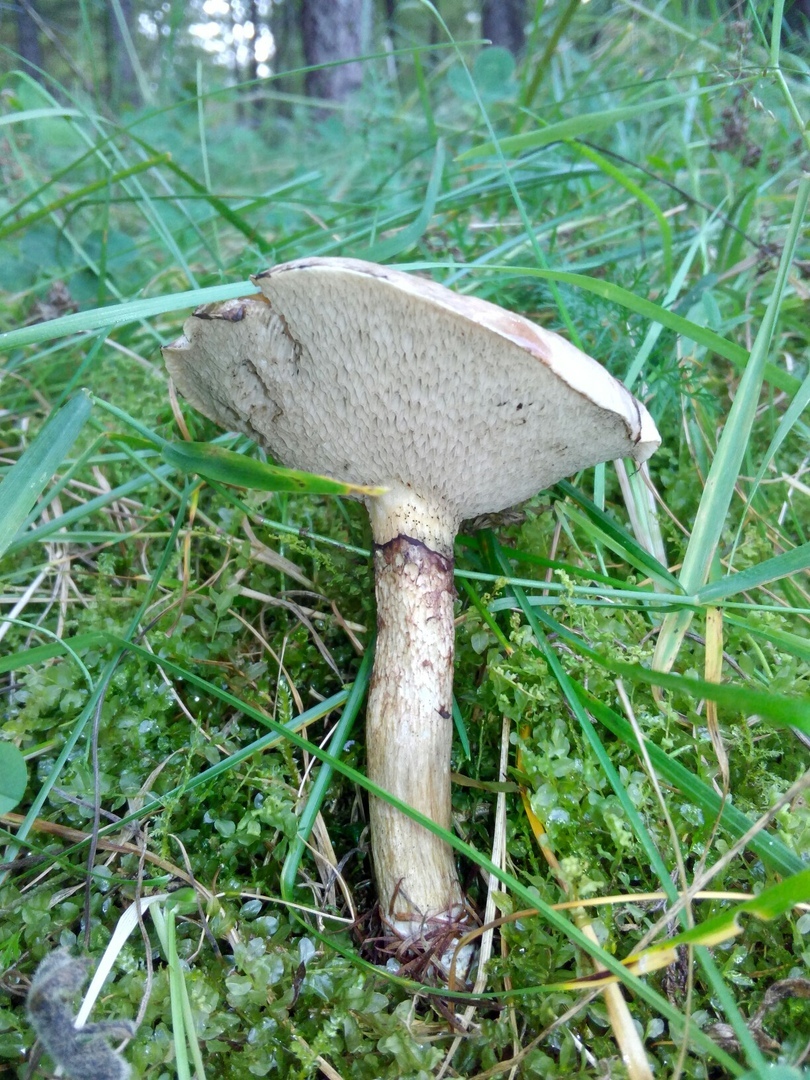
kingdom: Fungi
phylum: Basidiomycota
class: Agaricomycetes
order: Boletales
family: Suillaceae
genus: Suillus
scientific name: Suillus viscidus
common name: Sticky bolete
